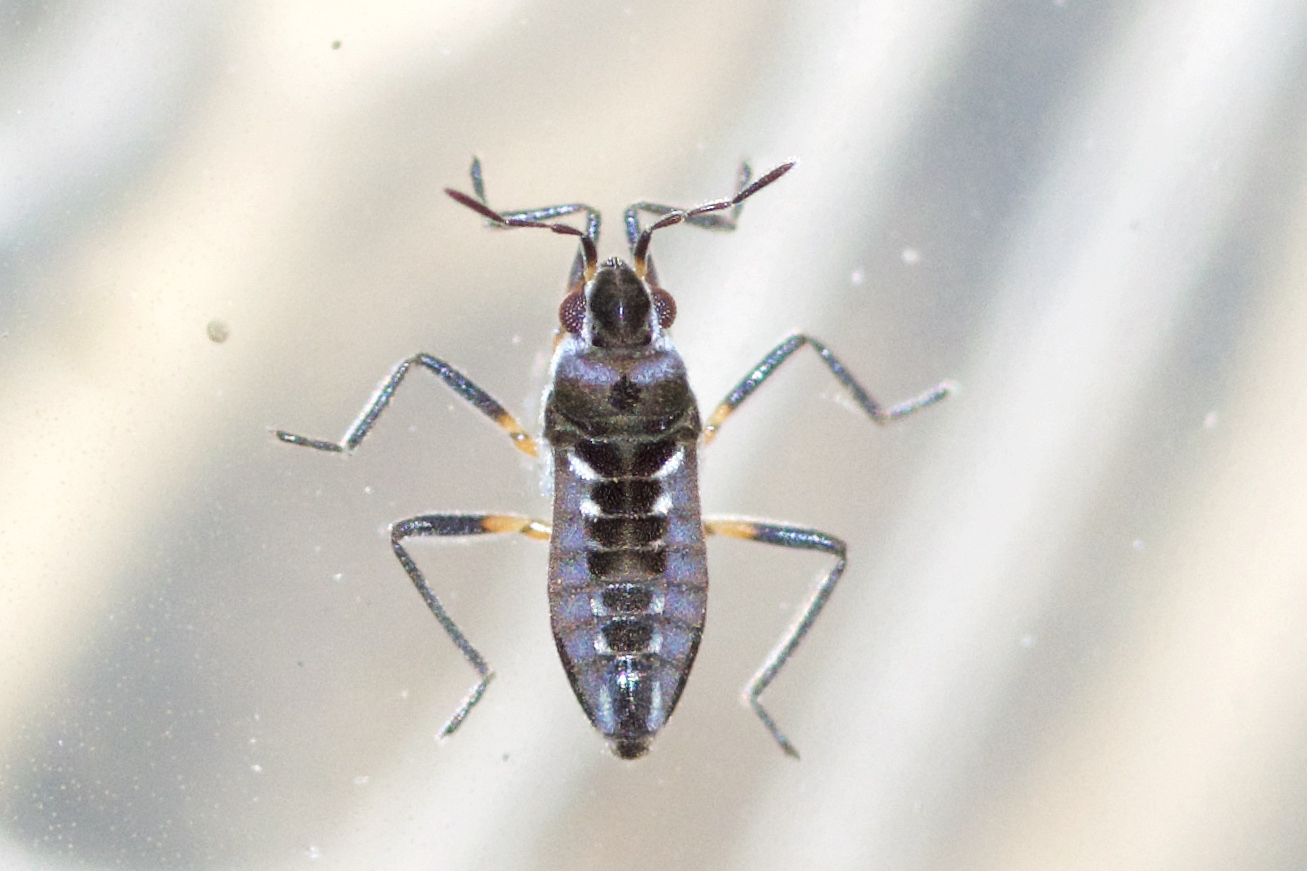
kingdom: Animalia
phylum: Arthropoda
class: Insecta
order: Hemiptera
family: Veliidae
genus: Microvelia
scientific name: Microvelia buenoi
